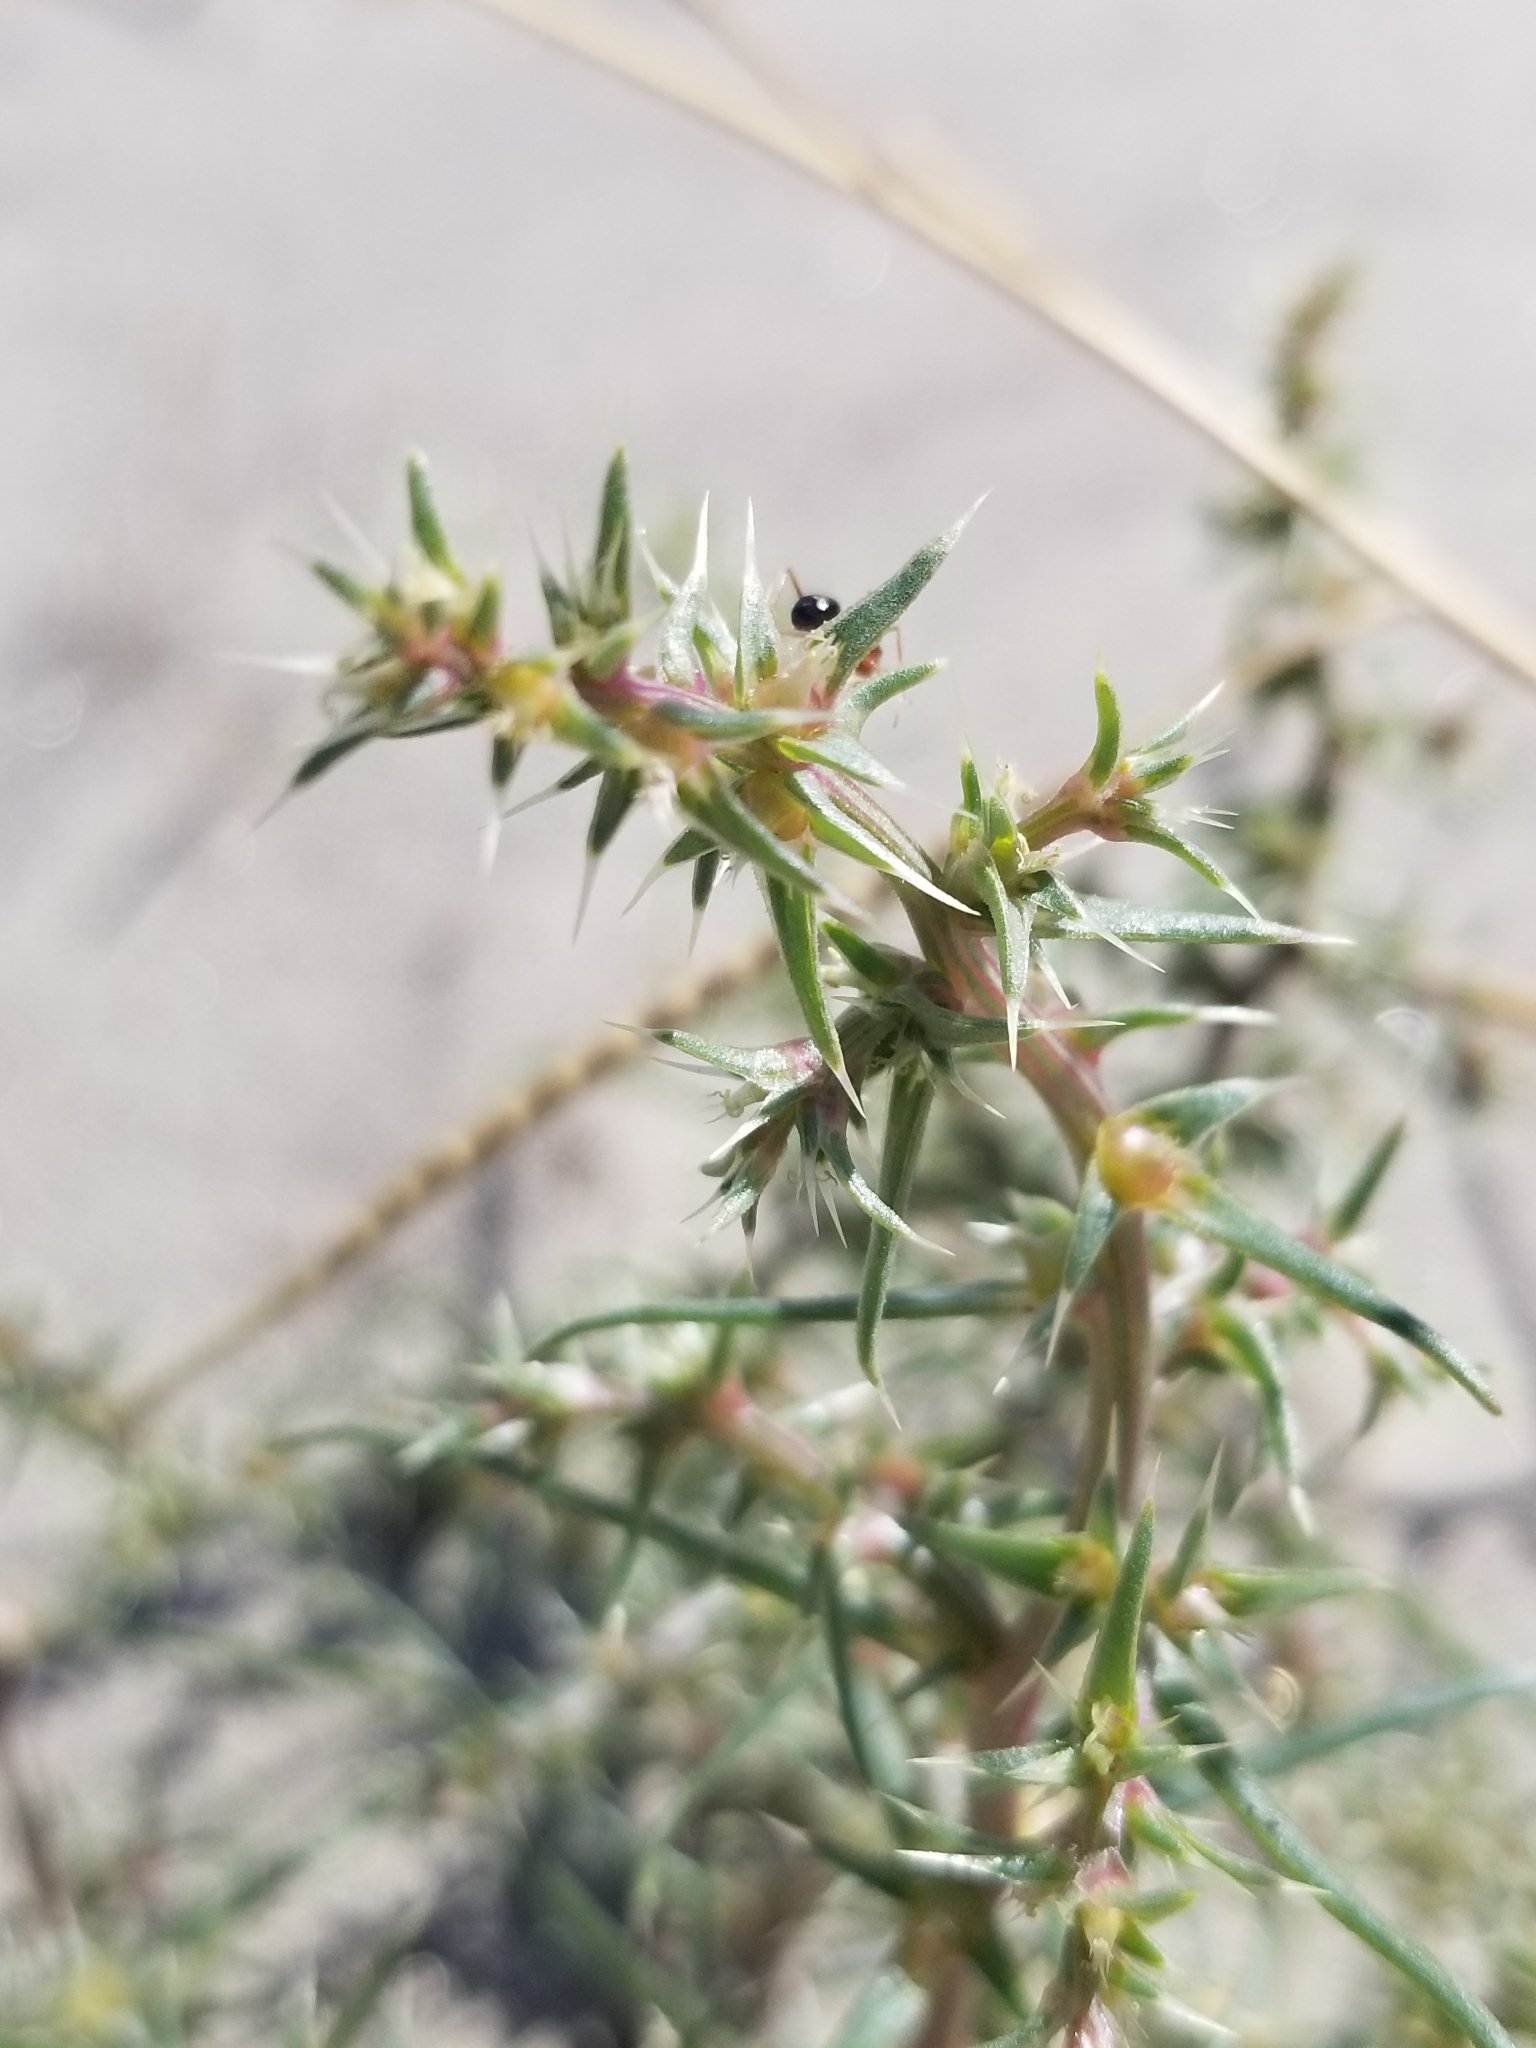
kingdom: Plantae
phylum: Tracheophyta
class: Magnoliopsida
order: Caryophyllales
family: Amaranthaceae
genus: Salsola
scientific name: Salsola tragus
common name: Prickly russian thistle
